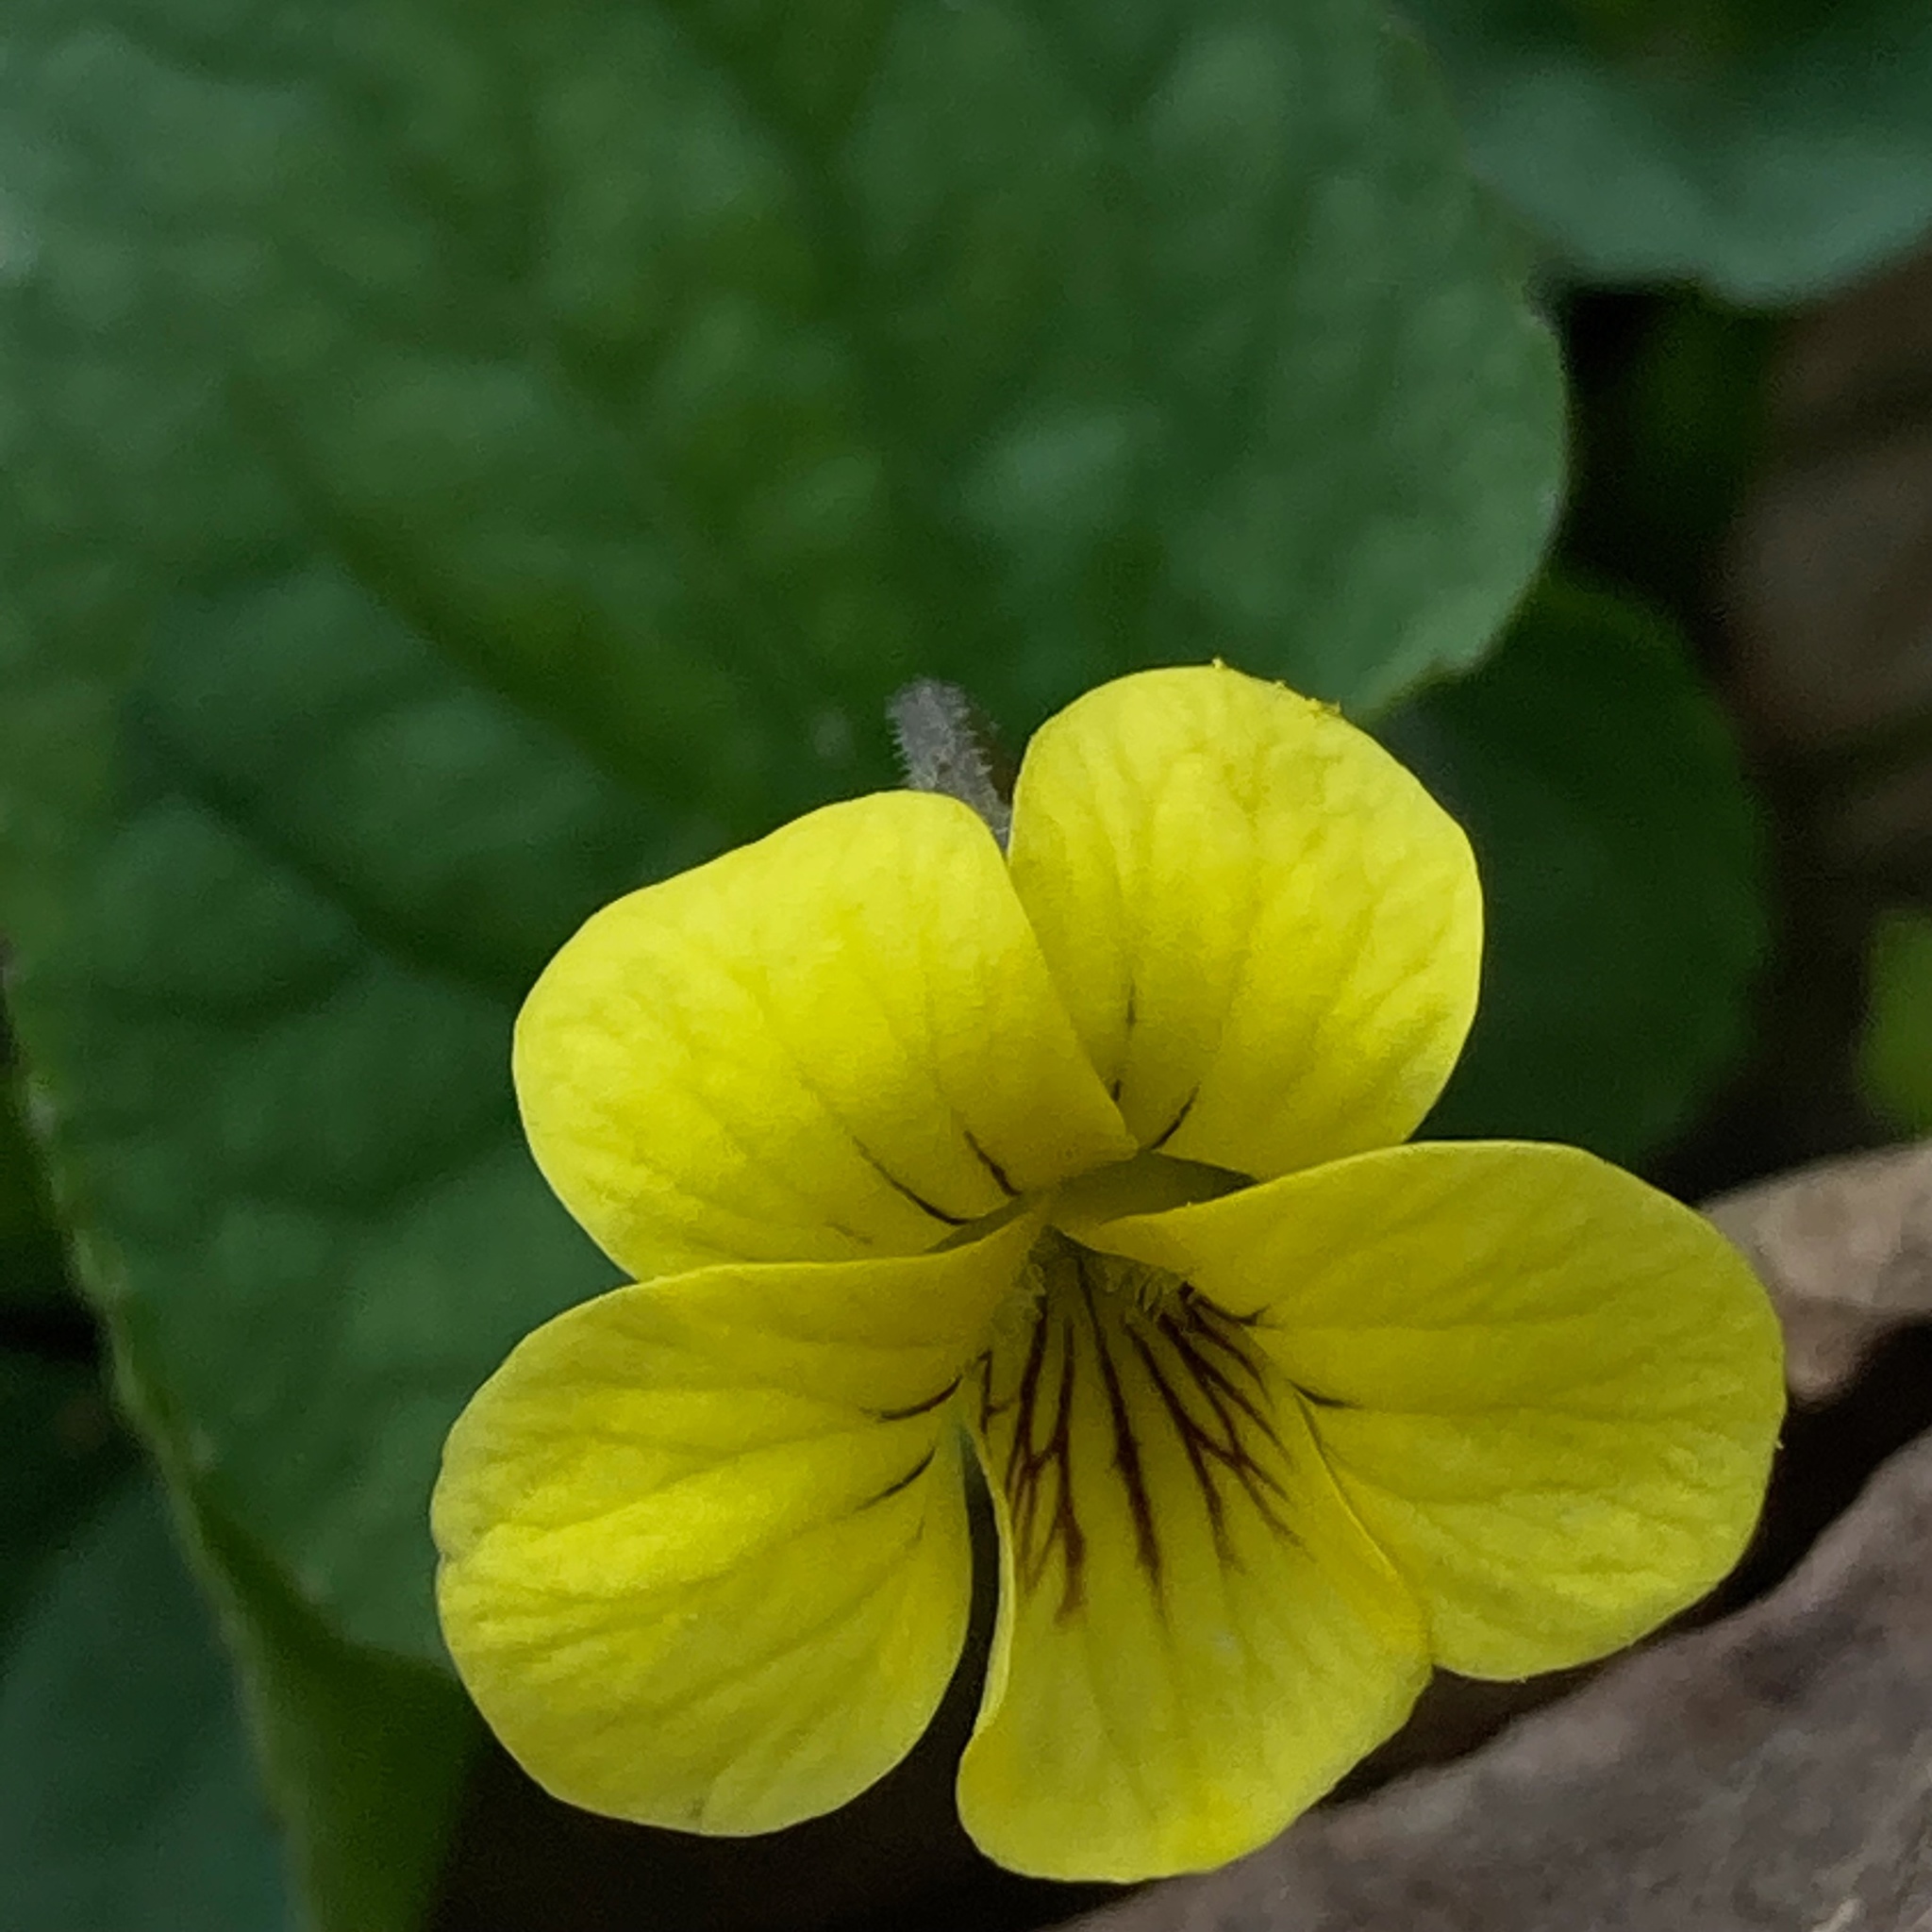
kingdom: Plantae
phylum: Tracheophyta
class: Magnoliopsida
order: Malpighiales
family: Violaceae
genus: Viola
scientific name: Viola eriocarpa
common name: Smooth yellow violet
